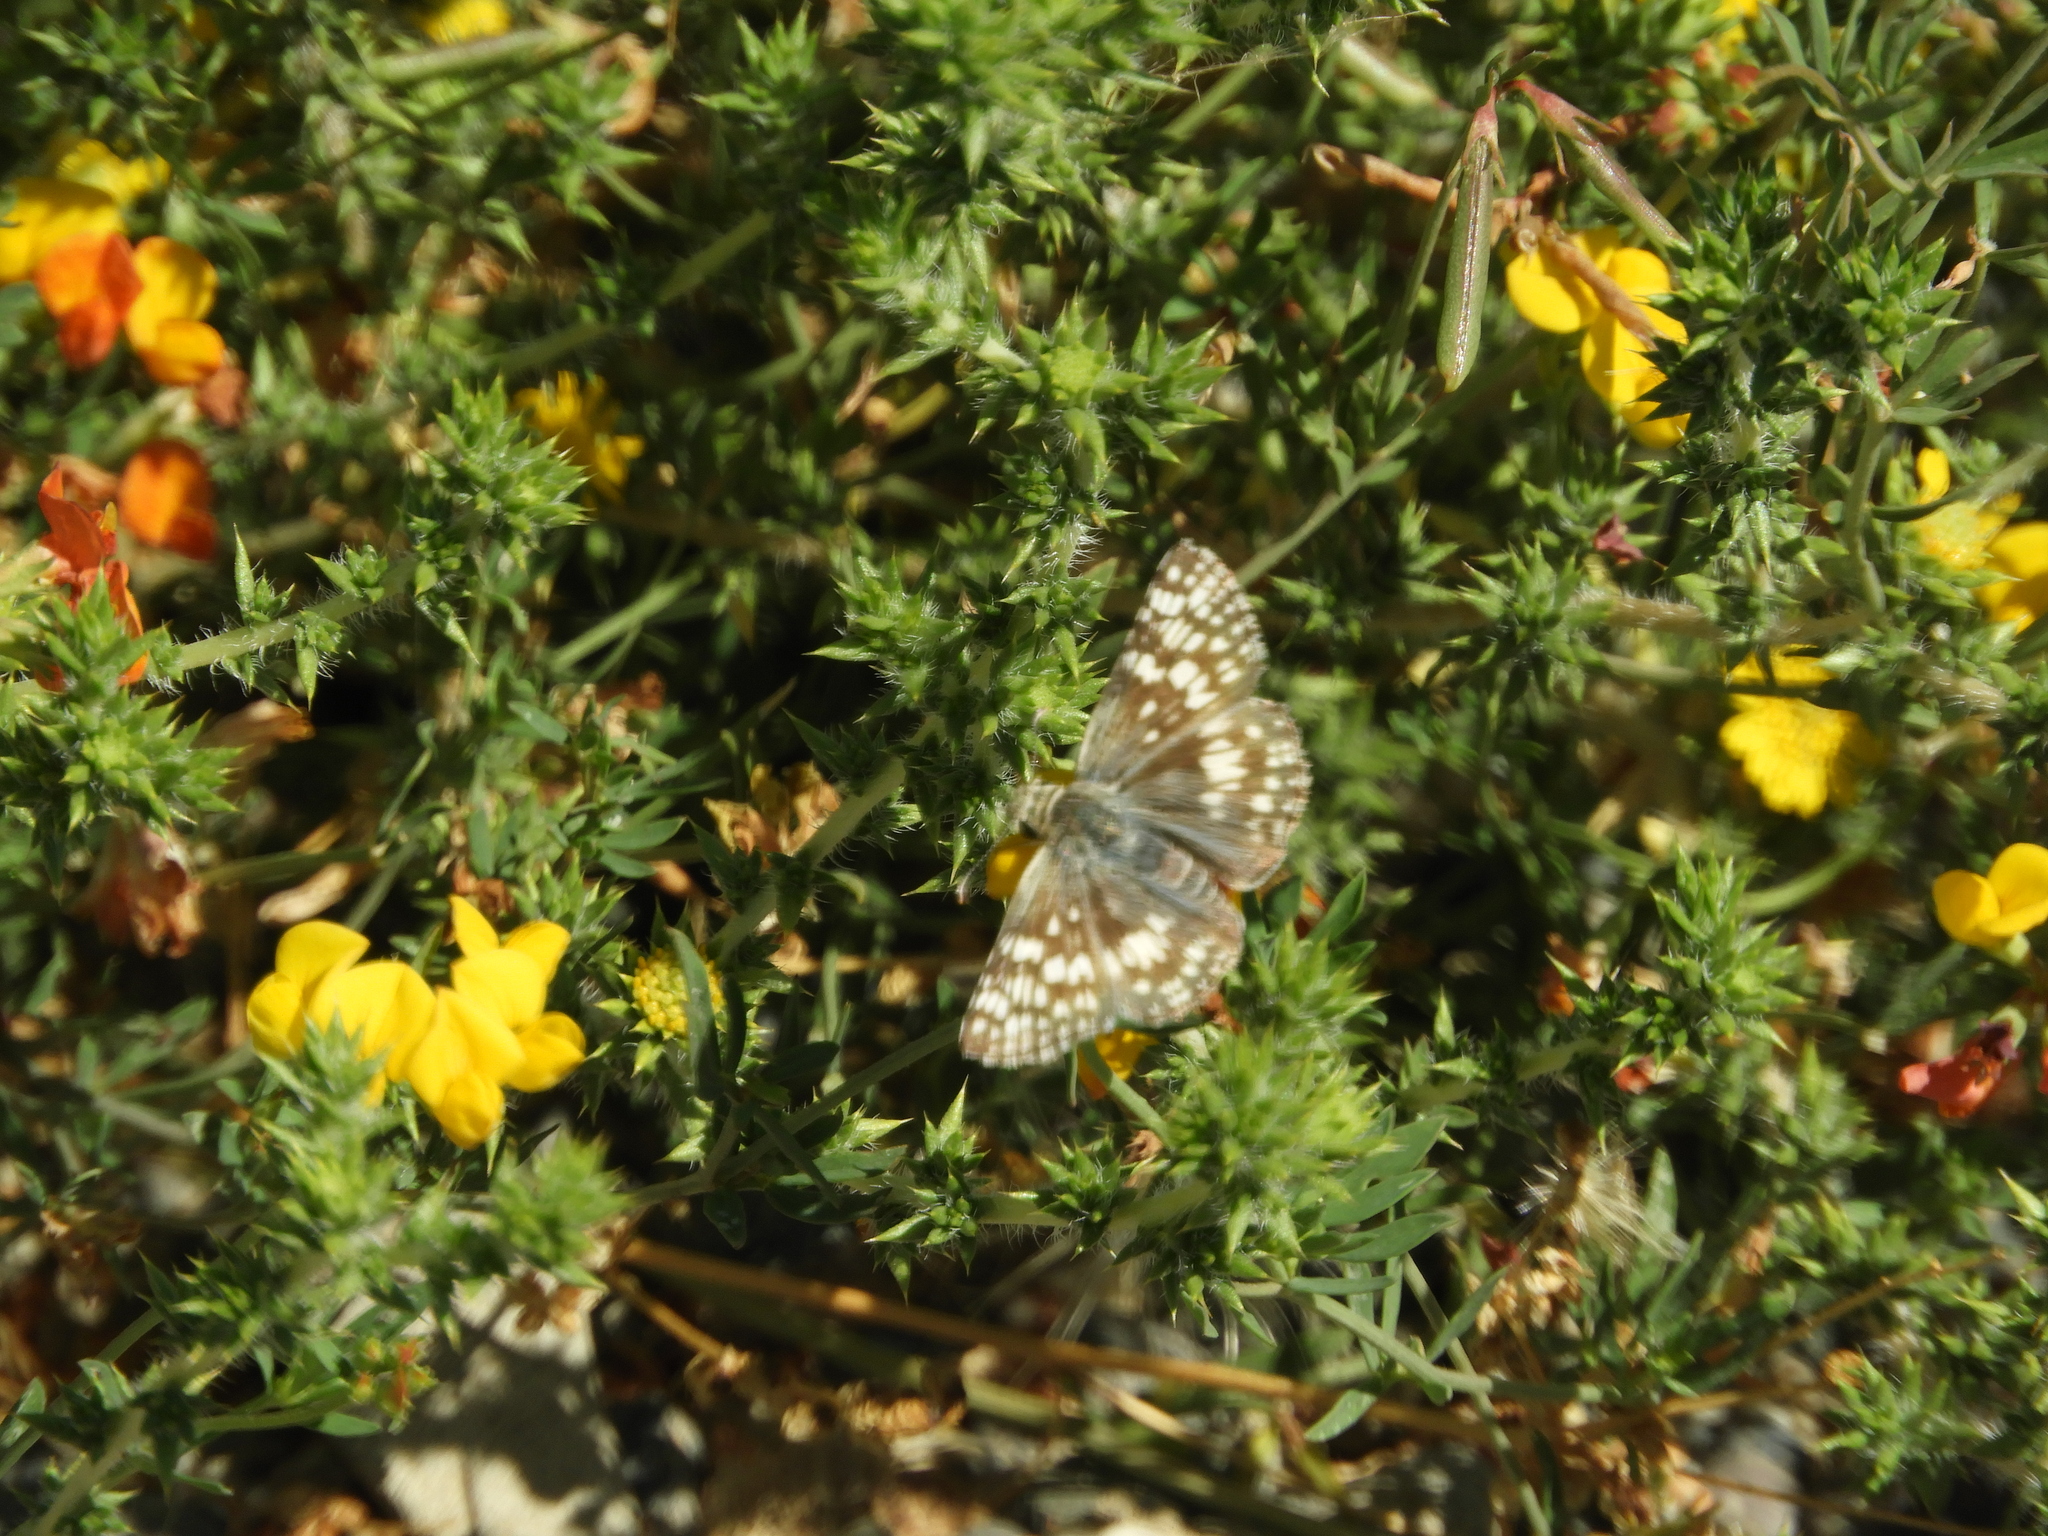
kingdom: Animalia
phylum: Arthropoda
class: Insecta
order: Lepidoptera
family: Hesperiidae
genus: Burnsius
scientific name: Burnsius communis
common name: Common checkered-skipper
